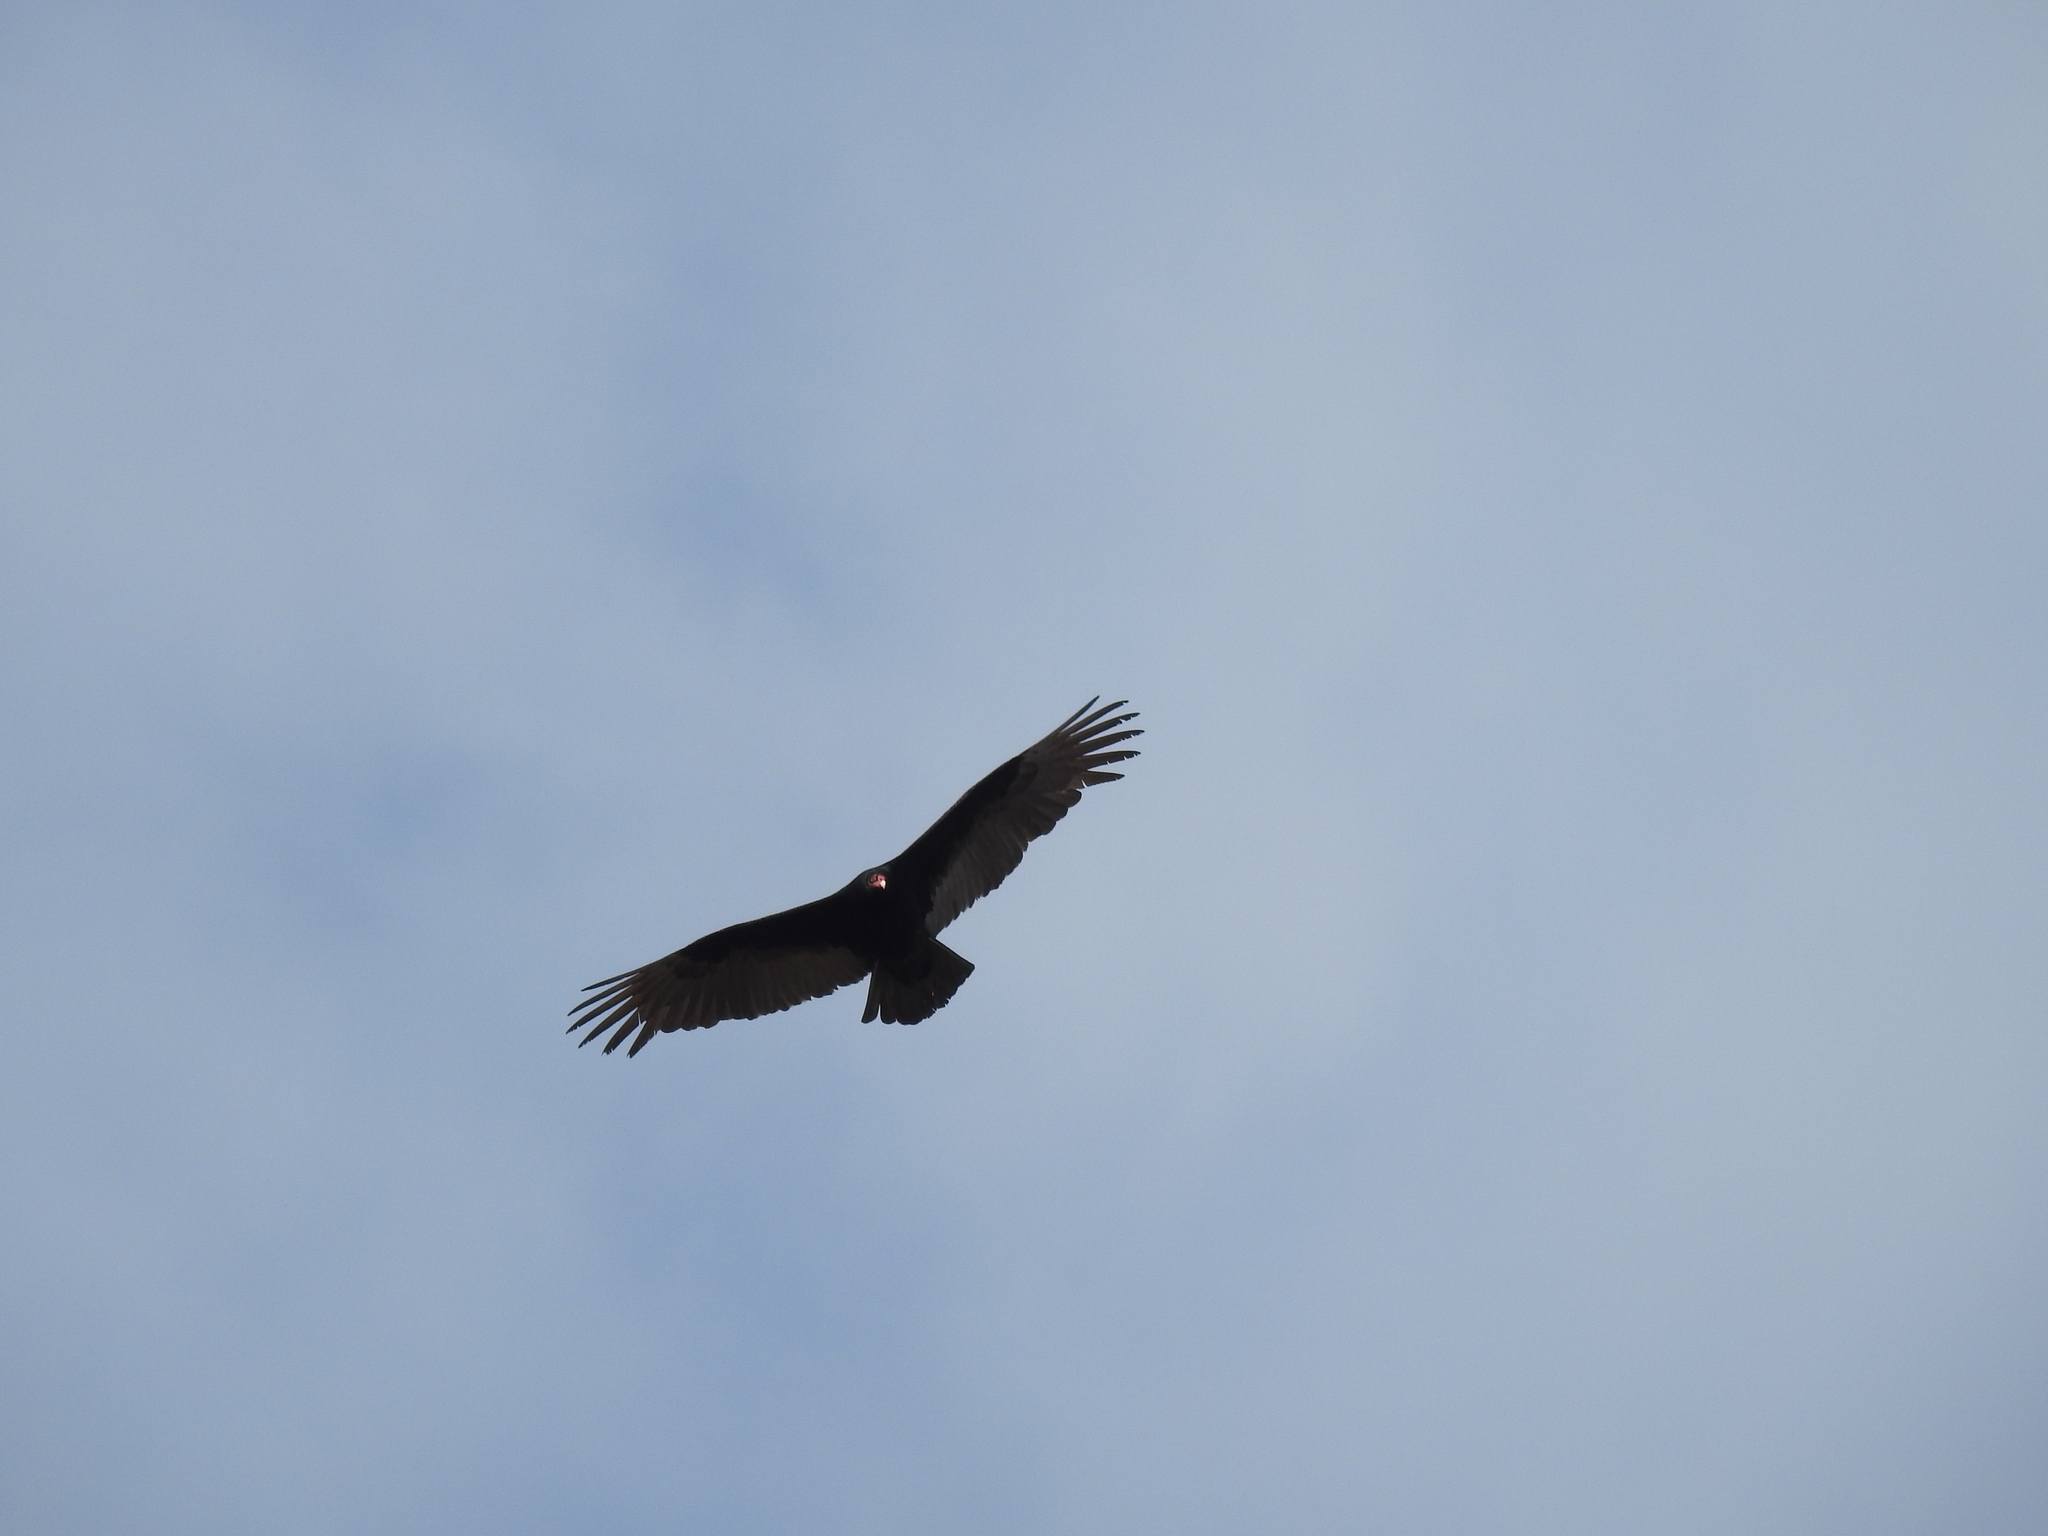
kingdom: Animalia
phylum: Chordata
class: Aves
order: Accipitriformes
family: Cathartidae
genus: Cathartes
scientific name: Cathartes aura
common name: Turkey vulture
